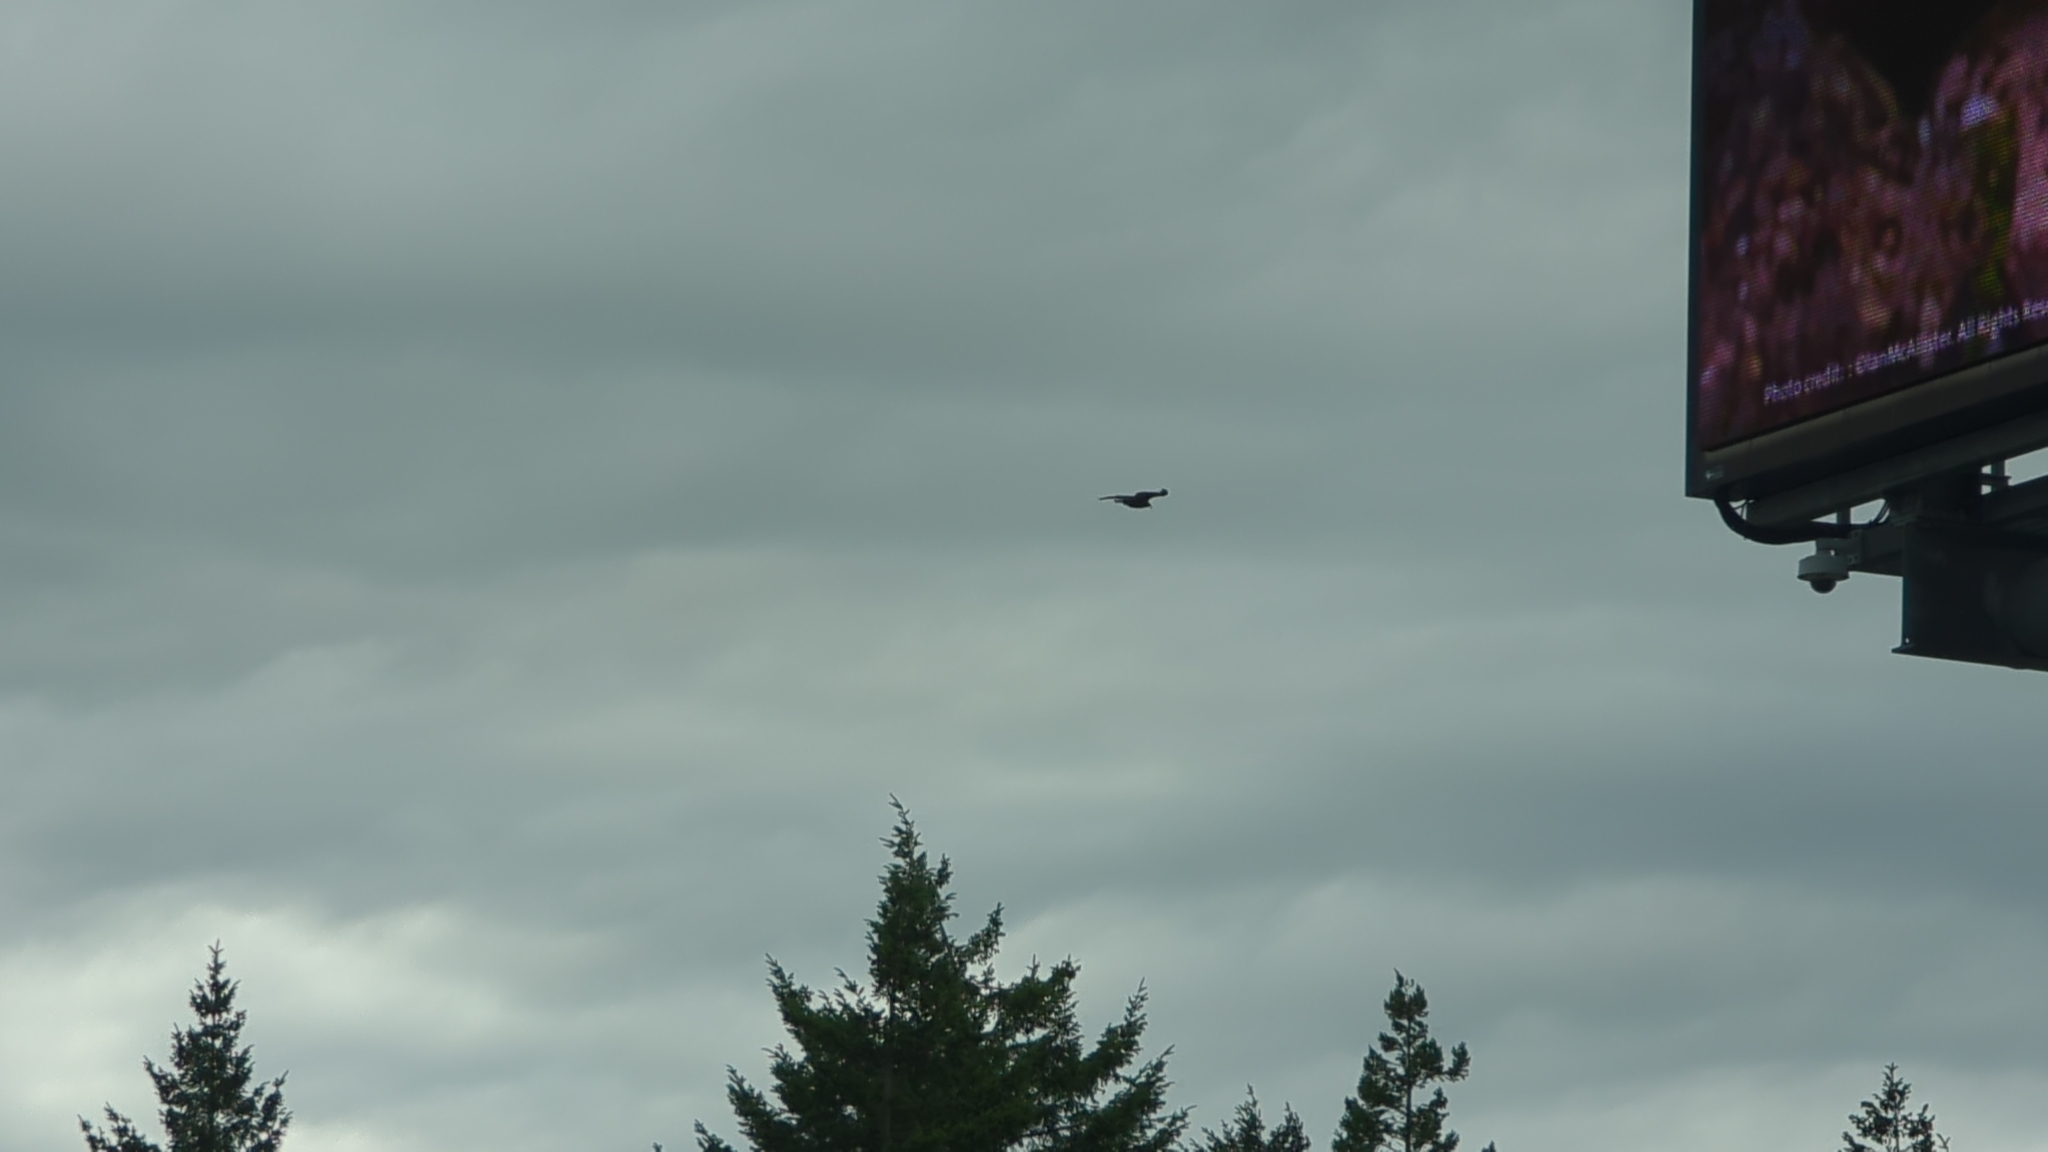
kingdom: Animalia
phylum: Chordata
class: Aves
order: Accipitriformes
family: Cathartidae
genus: Cathartes
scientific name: Cathartes aura
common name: Turkey vulture
